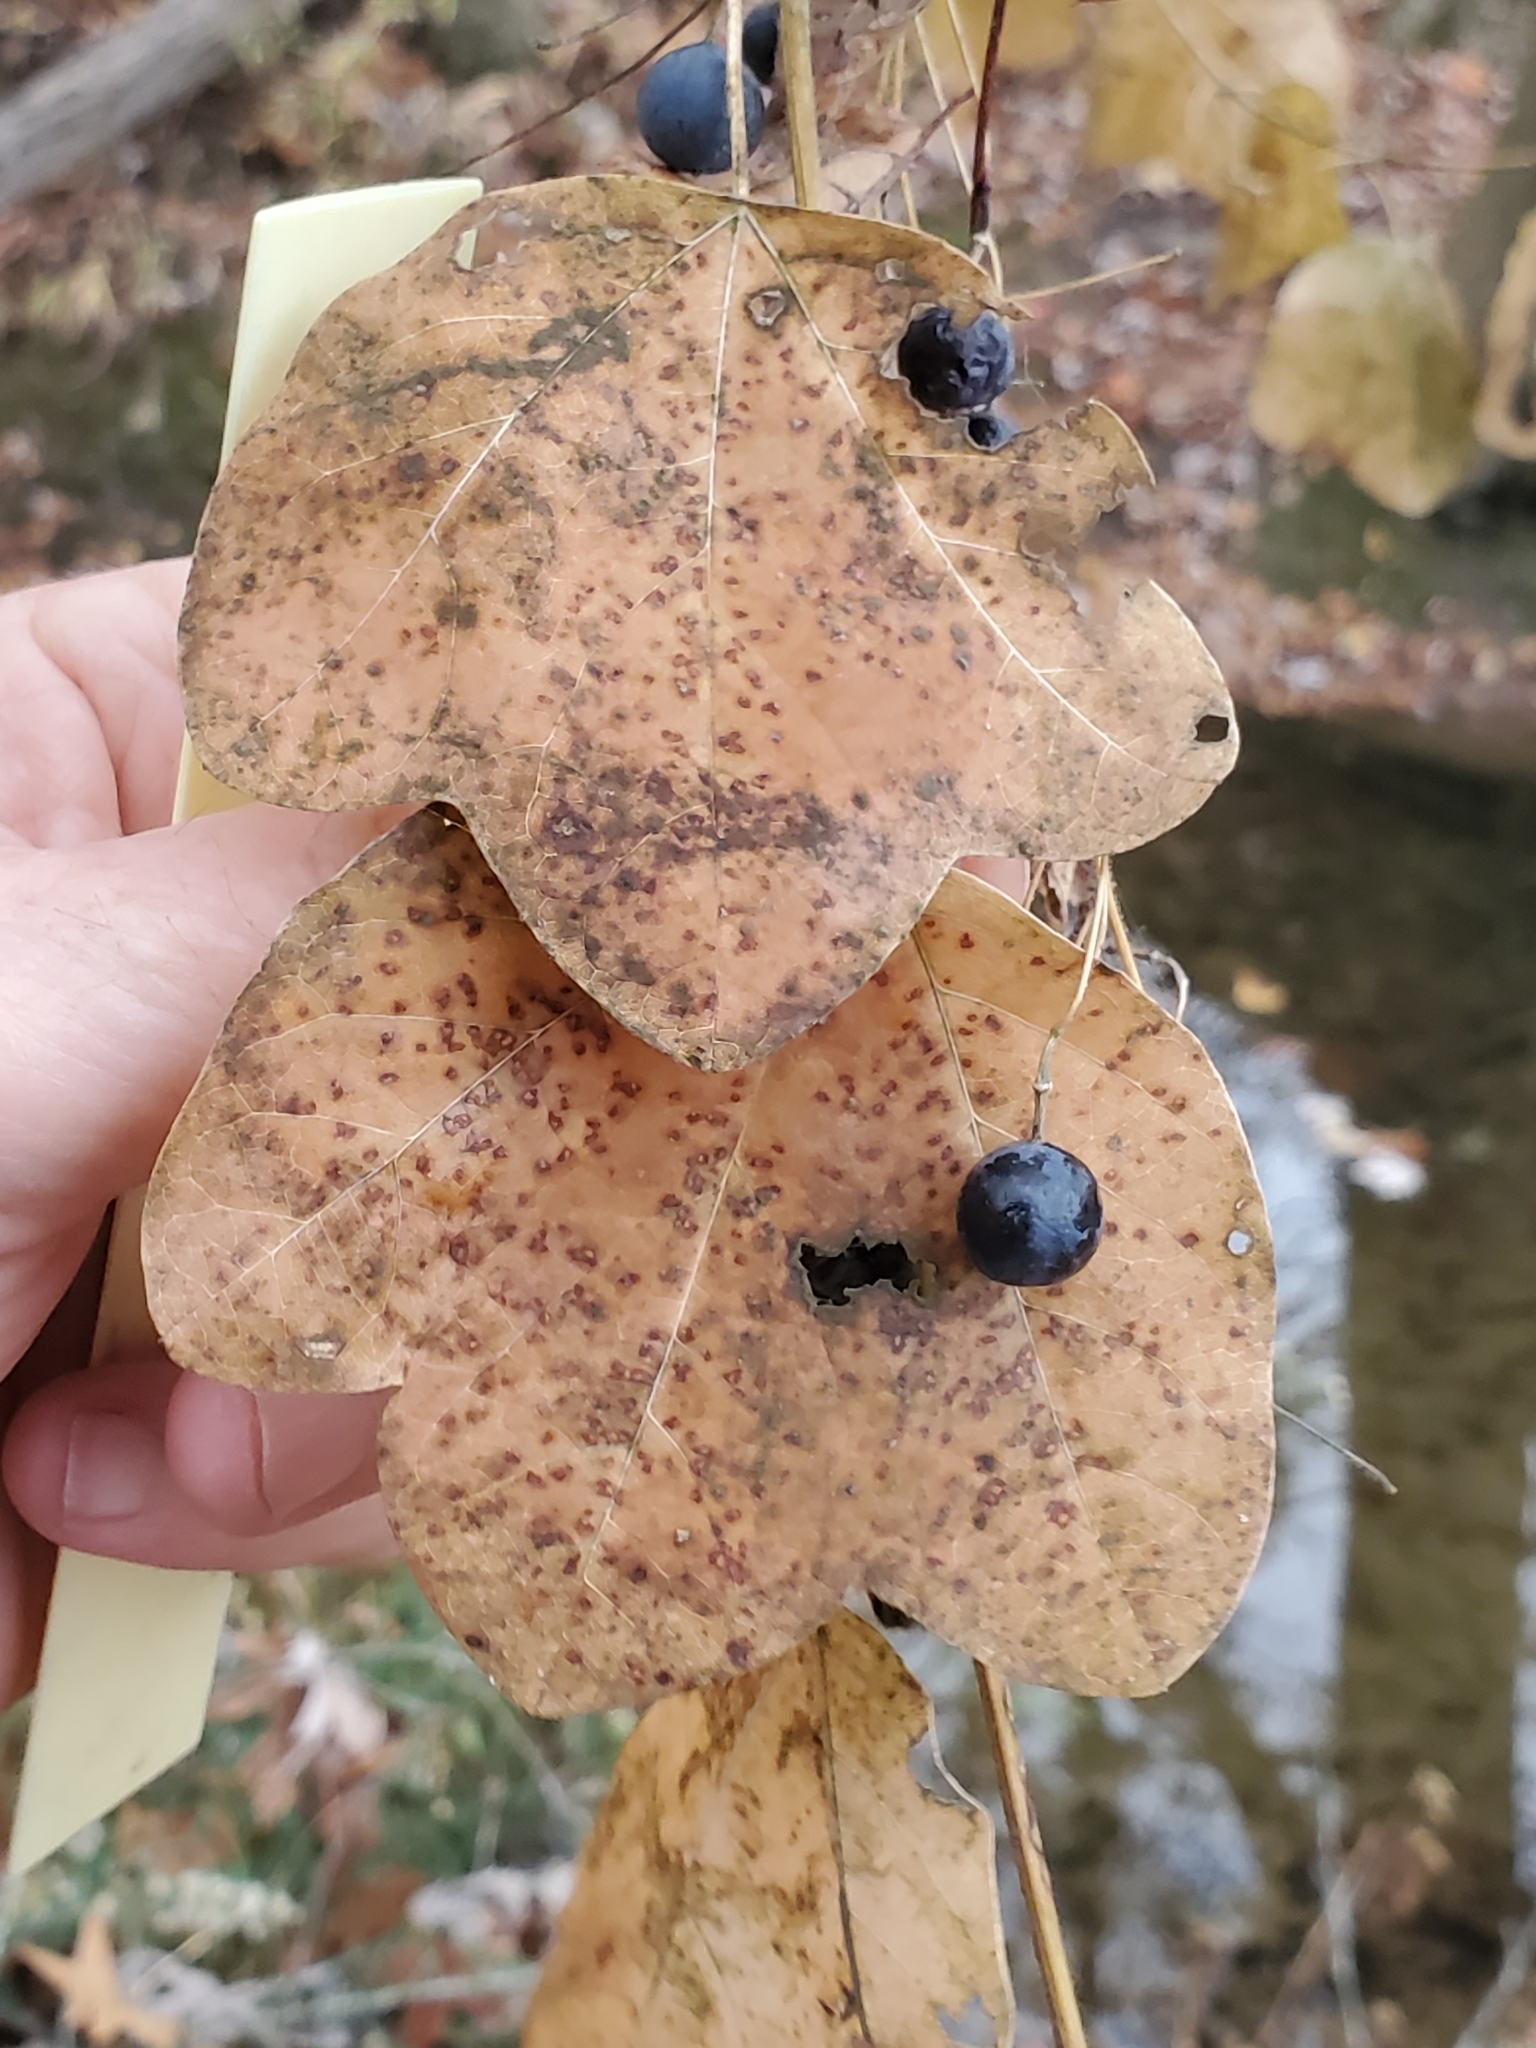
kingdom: Plantae
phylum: Tracheophyta
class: Magnoliopsida
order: Malpighiales
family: Passifloraceae
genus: Passiflora
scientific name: Passiflora lutea
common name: Yellow passionflower
